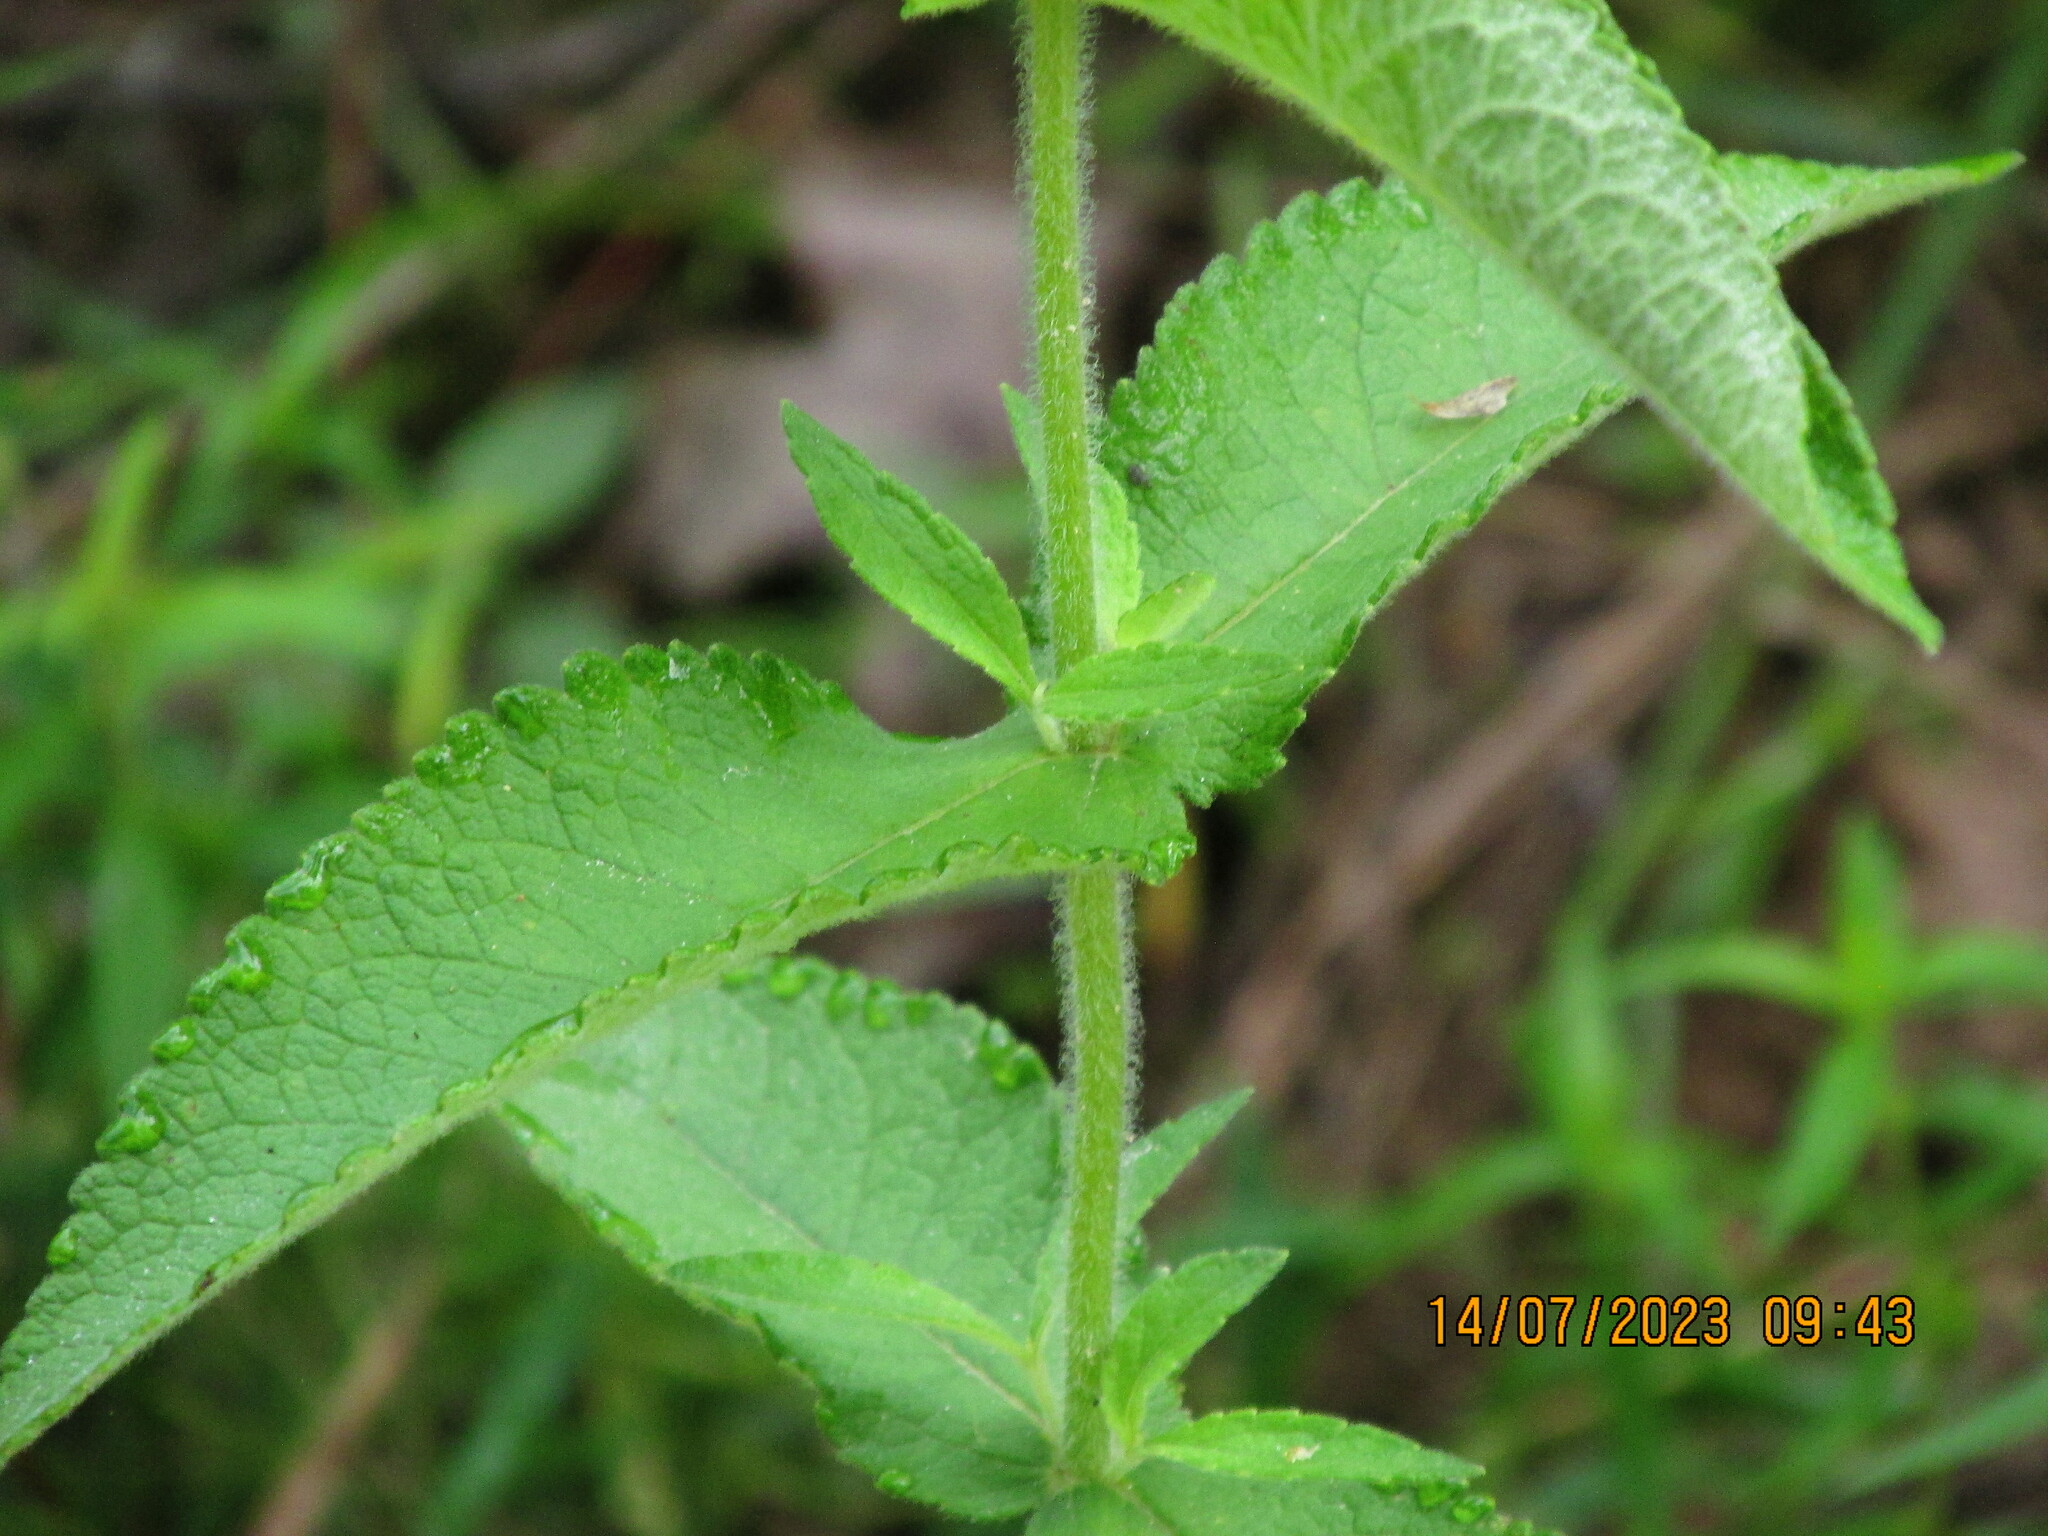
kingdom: Plantae
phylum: Tracheophyta
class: Magnoliopsida
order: Asterales
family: Asteraceae
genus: Eupatorium
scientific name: Eupatorium perfoliatum
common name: Boneset
